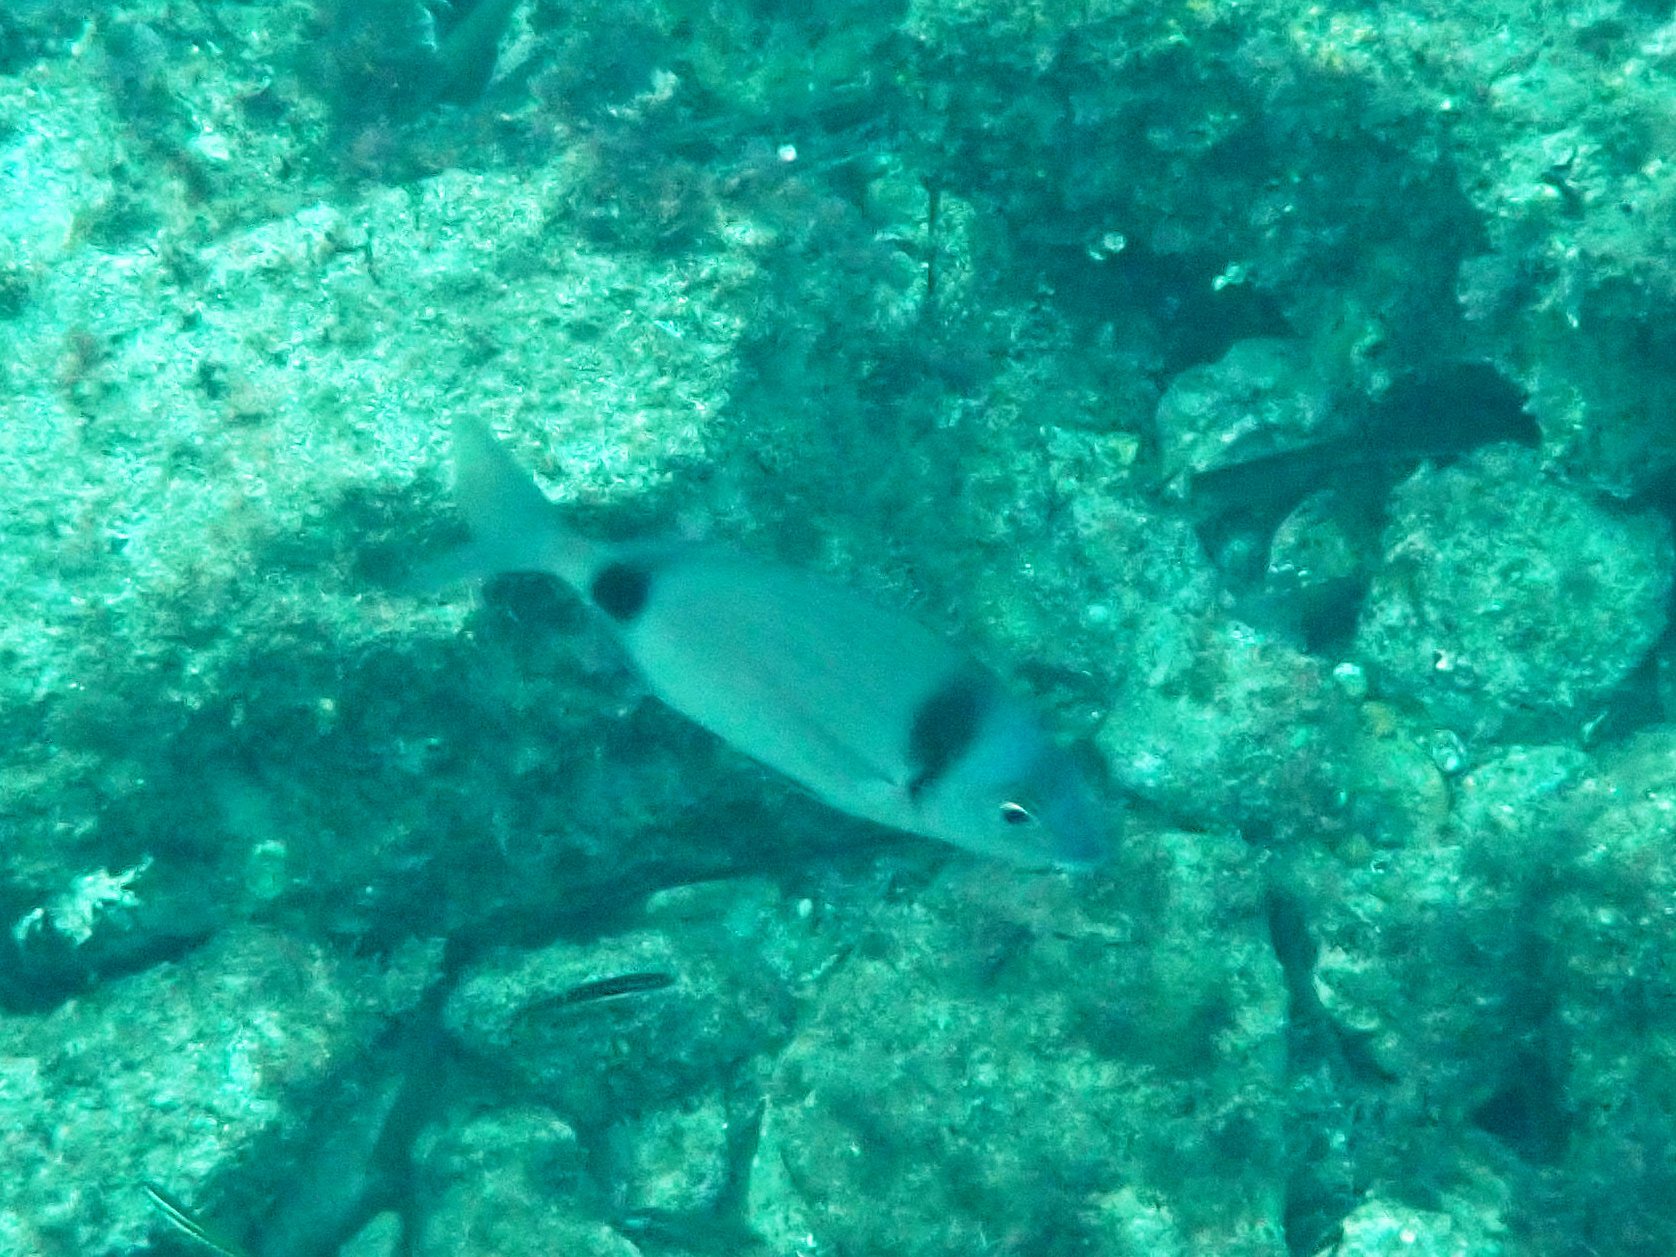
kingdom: Animalia
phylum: Chordata
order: Perciformes
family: Sparidae
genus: Diplodus
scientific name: Diplodus vulgaris
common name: Common two-banded seabream
